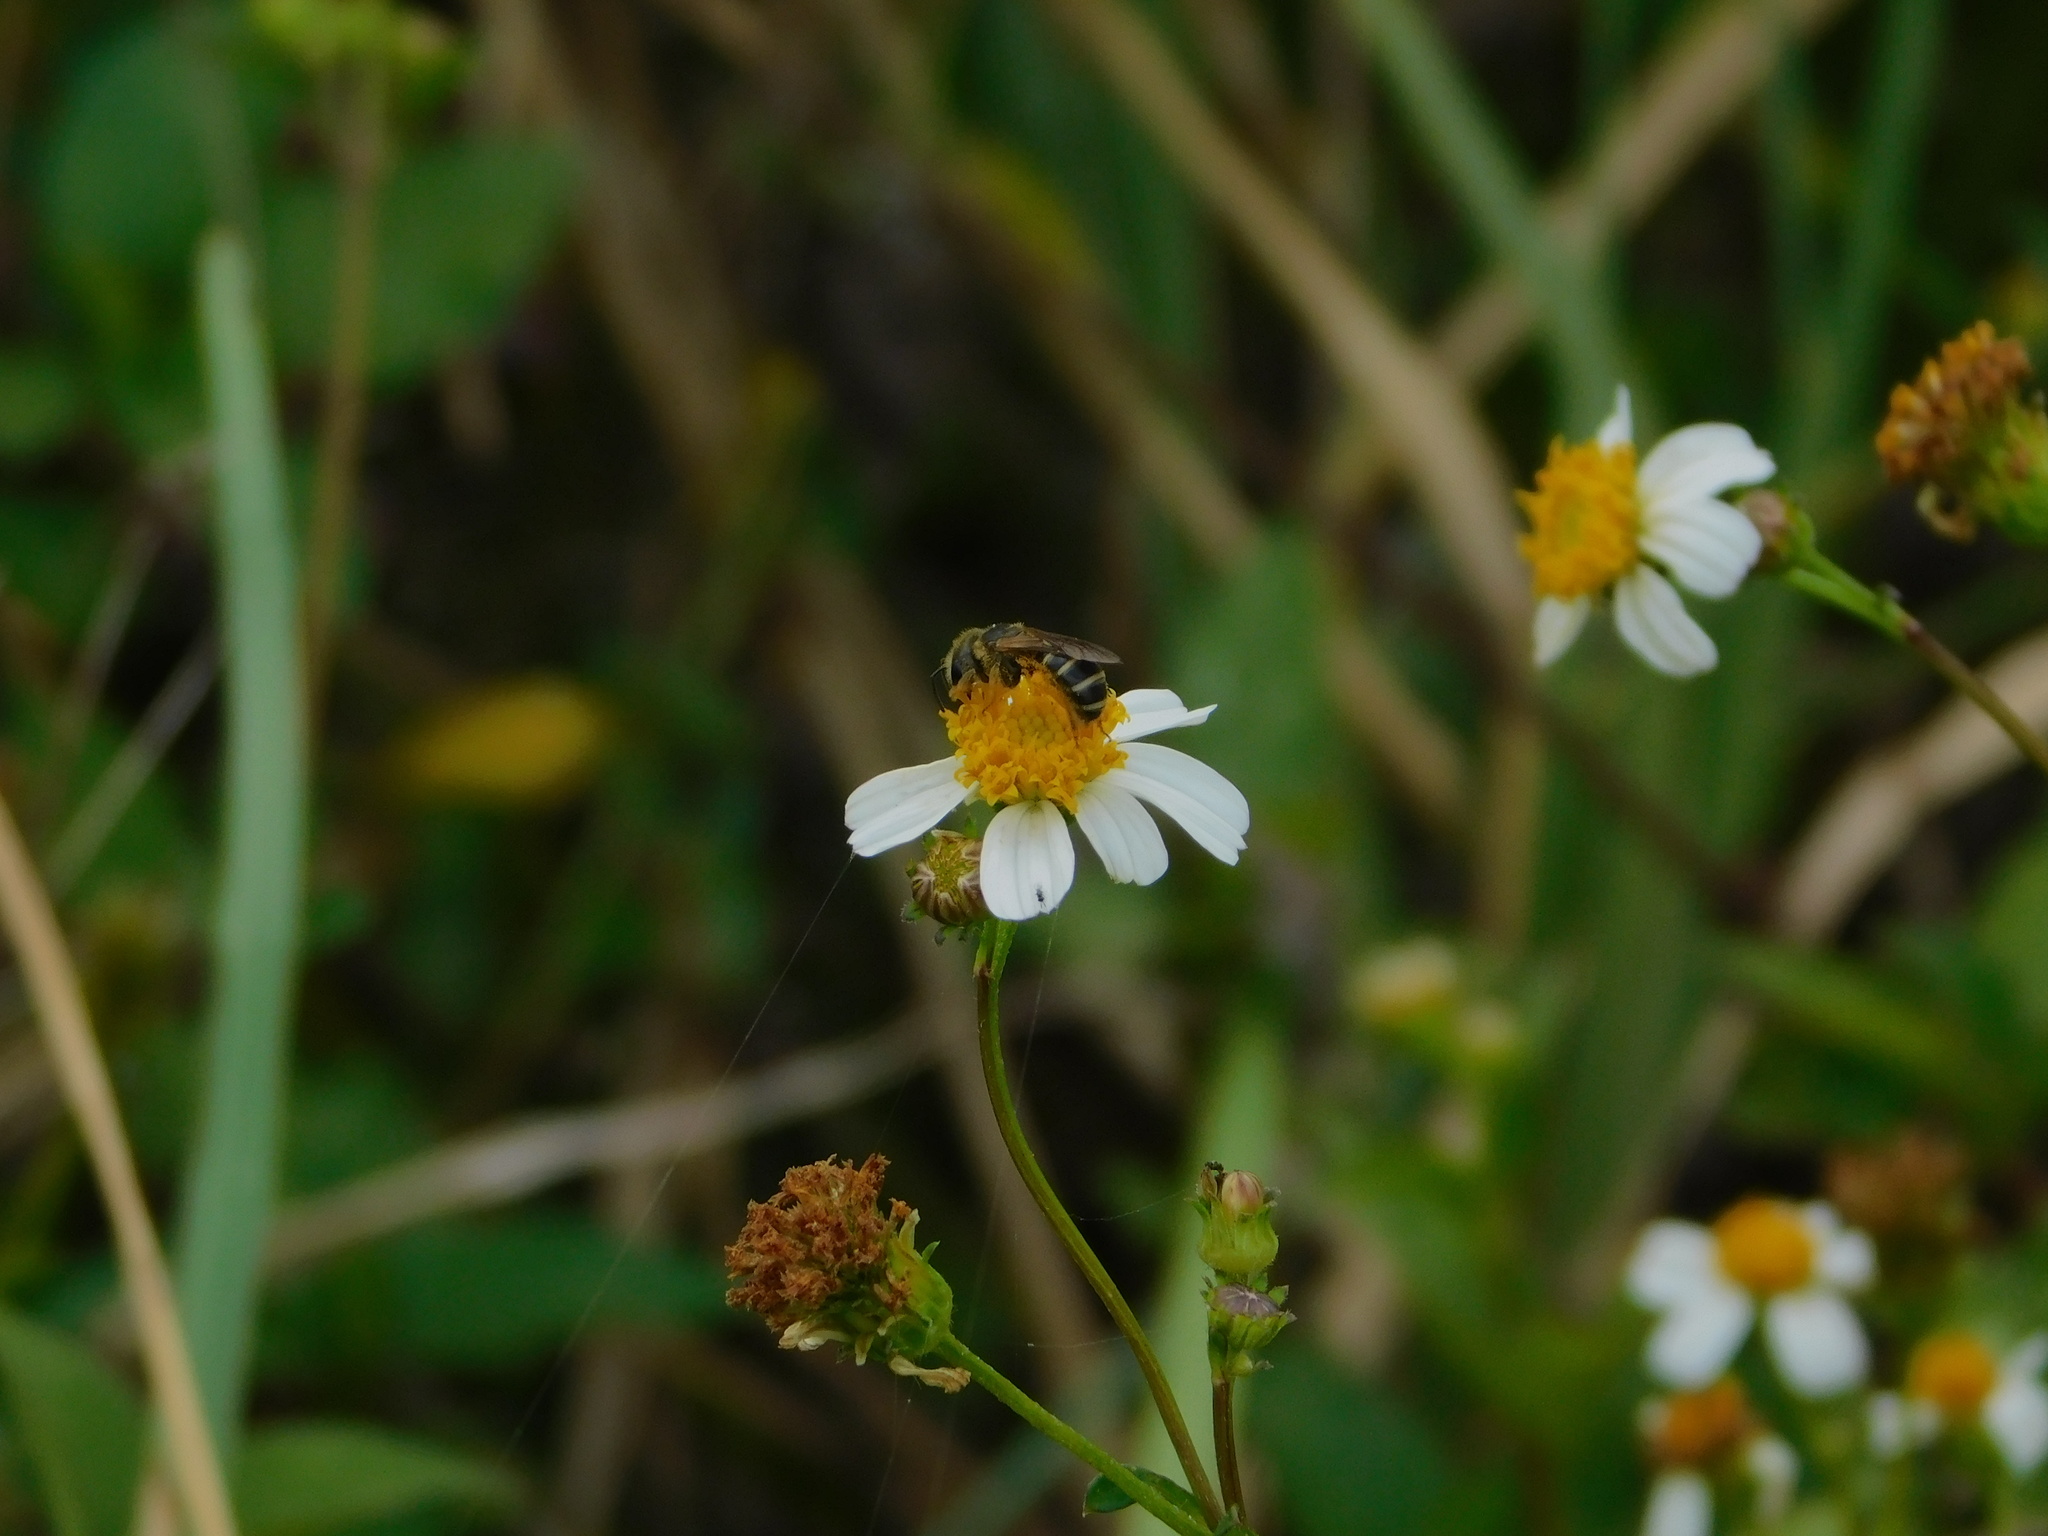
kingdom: Animalia
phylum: Arthropoda
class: Insecta
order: Hymenoptera
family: Halictidae
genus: Halictus
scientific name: Halictus poeyi
